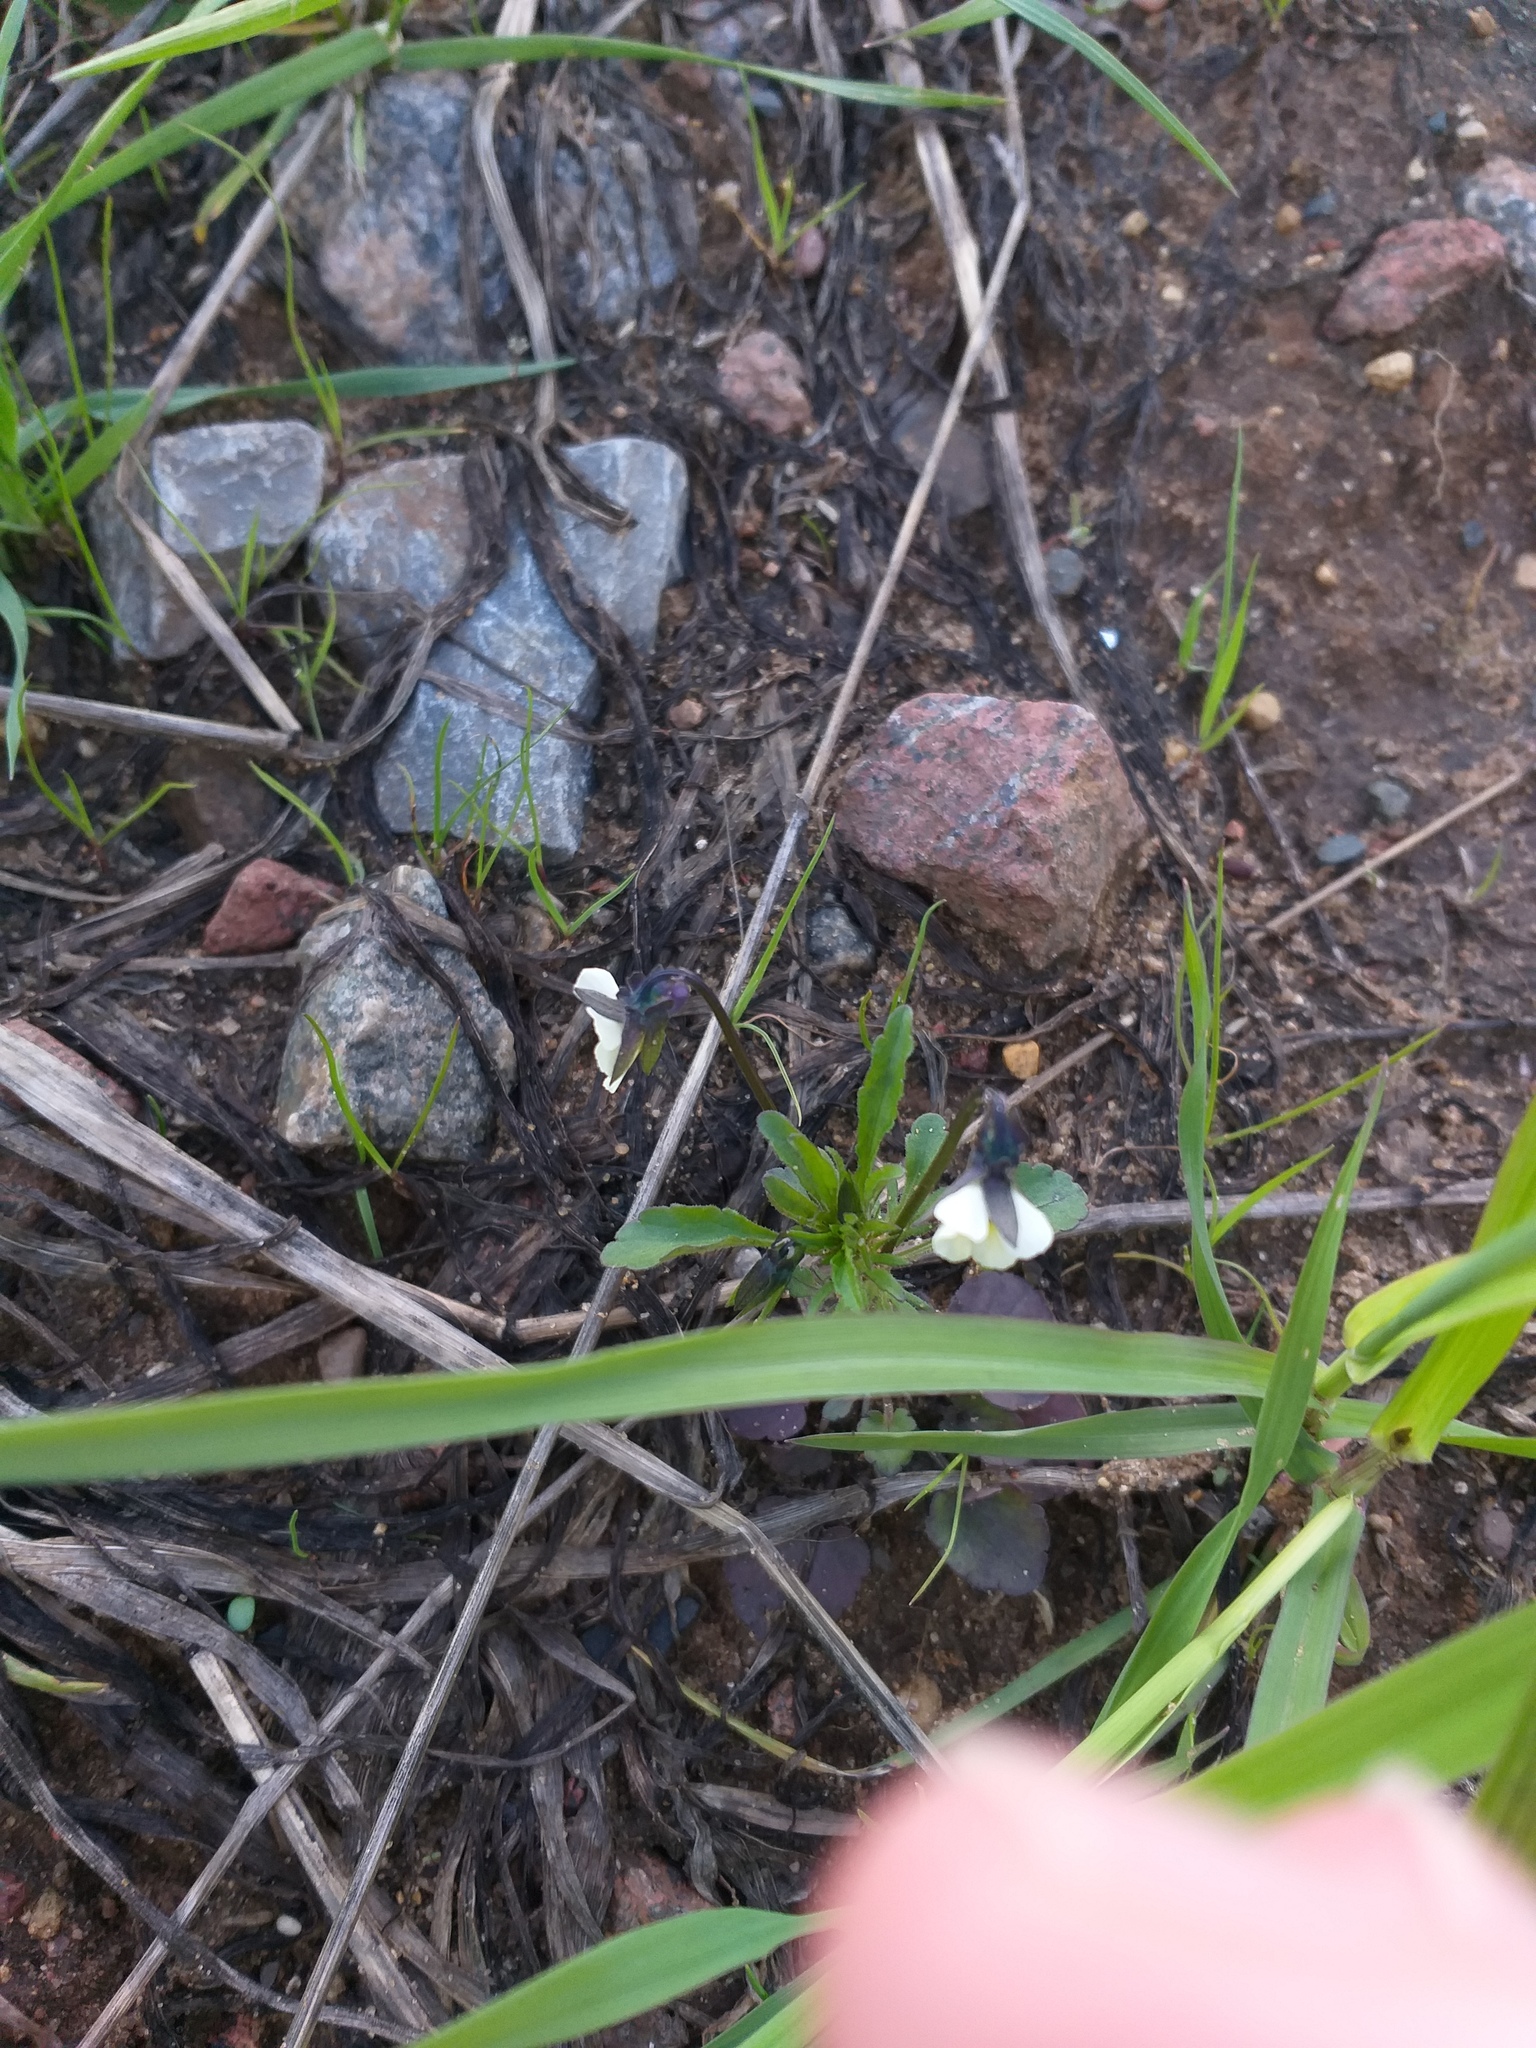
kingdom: Plantae
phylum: Tracheophyta
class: Magnoliopsida
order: Malpighiales
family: Violaceae
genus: Viola
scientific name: Viola arvensis
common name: Field pansy
